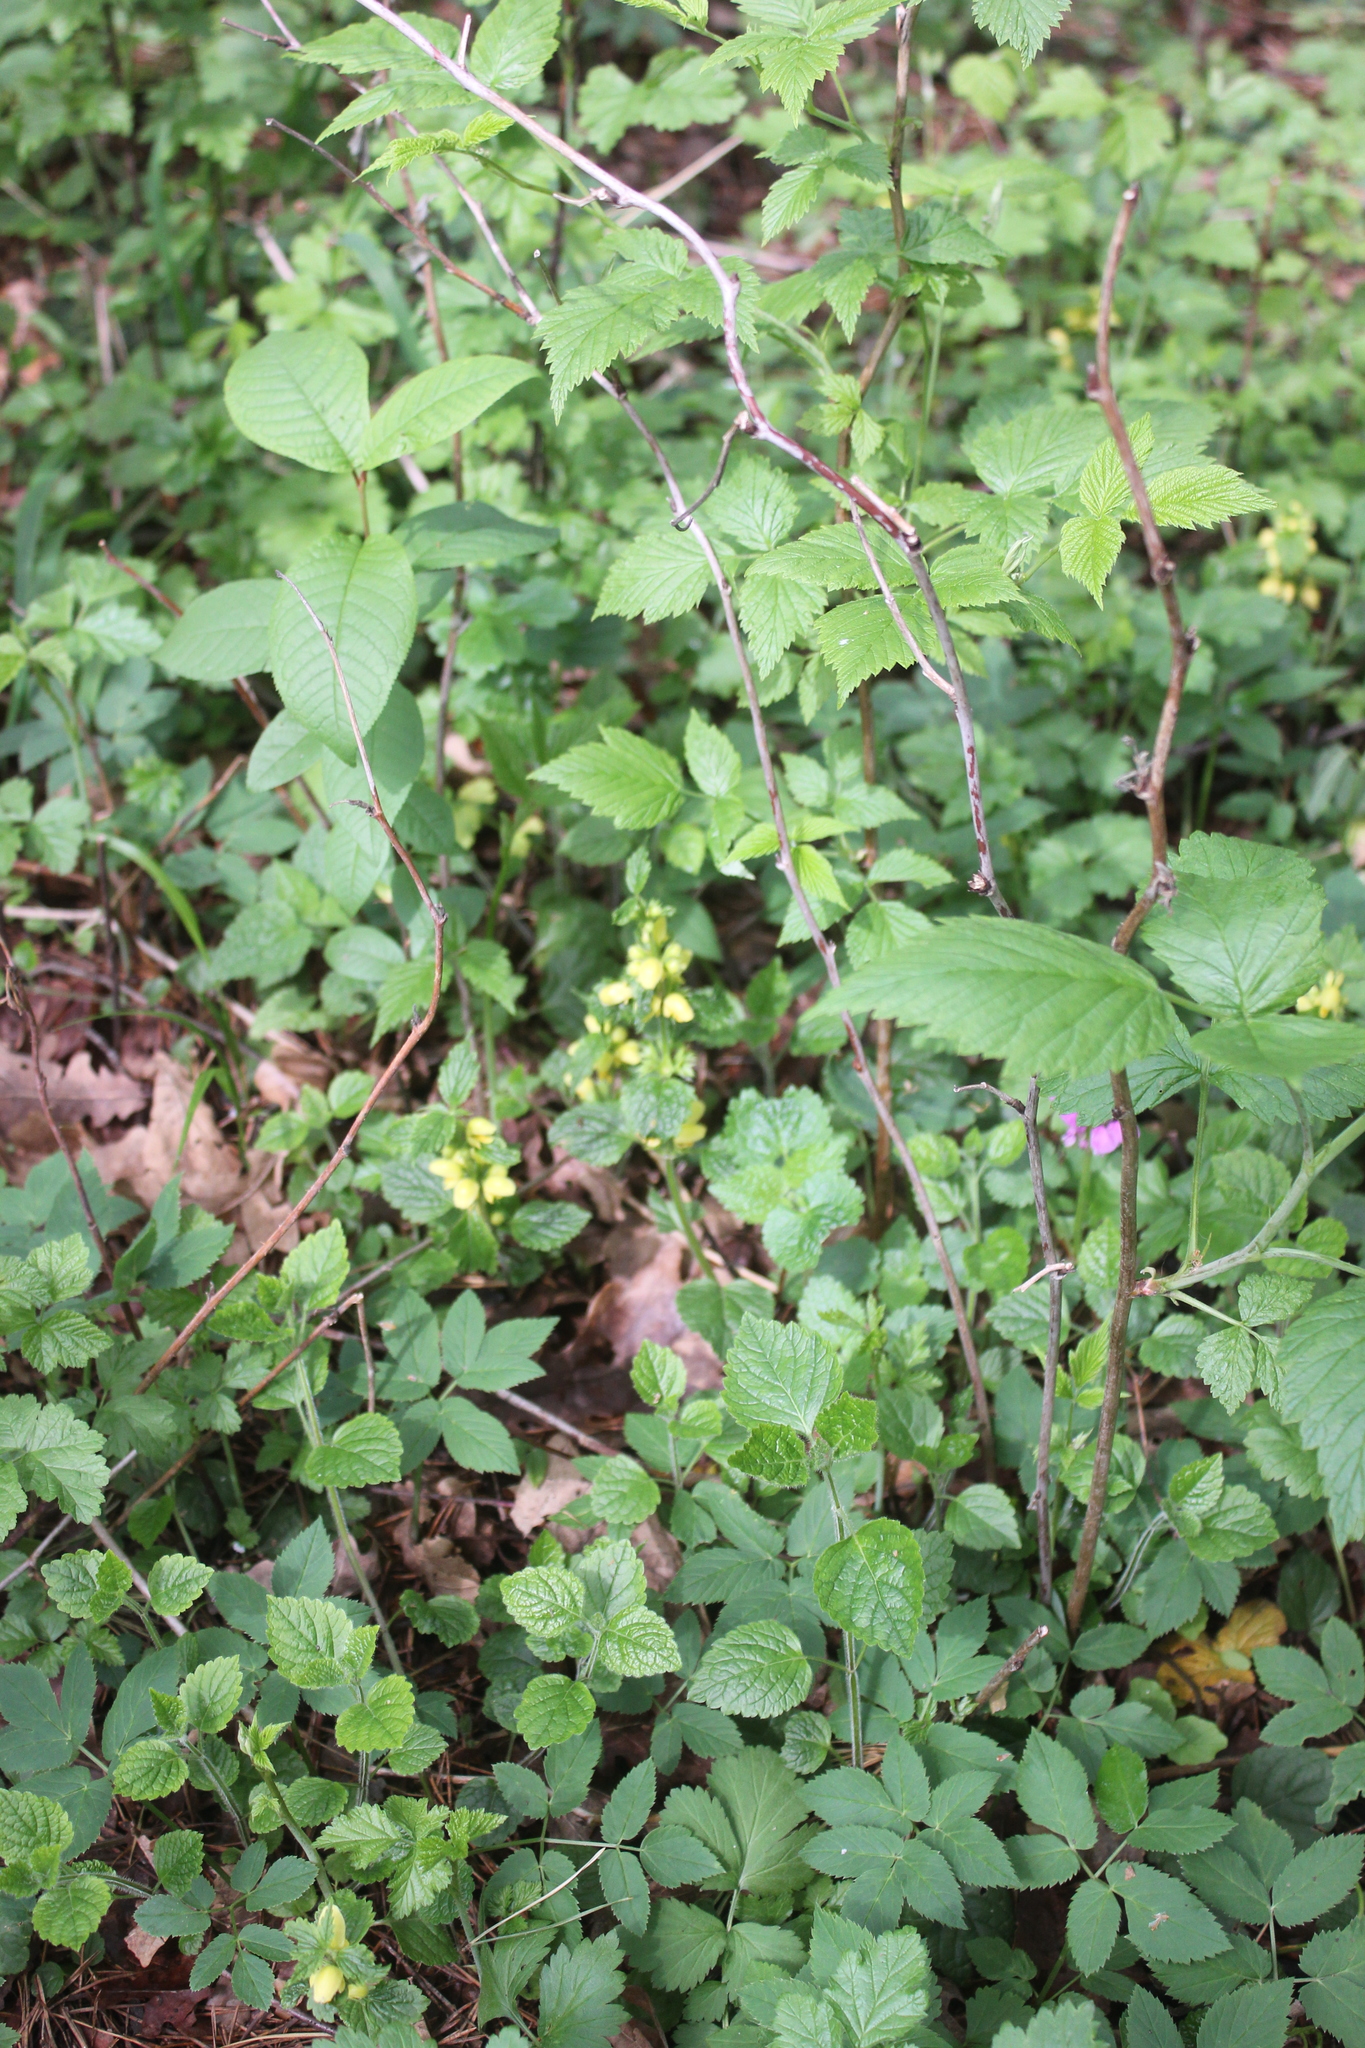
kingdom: Plantae
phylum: Tracheophyta
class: Magnoliopsida
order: Lamiales
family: Lamiaceae
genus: Lamium
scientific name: Lamium galeobdolon
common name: Yellow archangel
